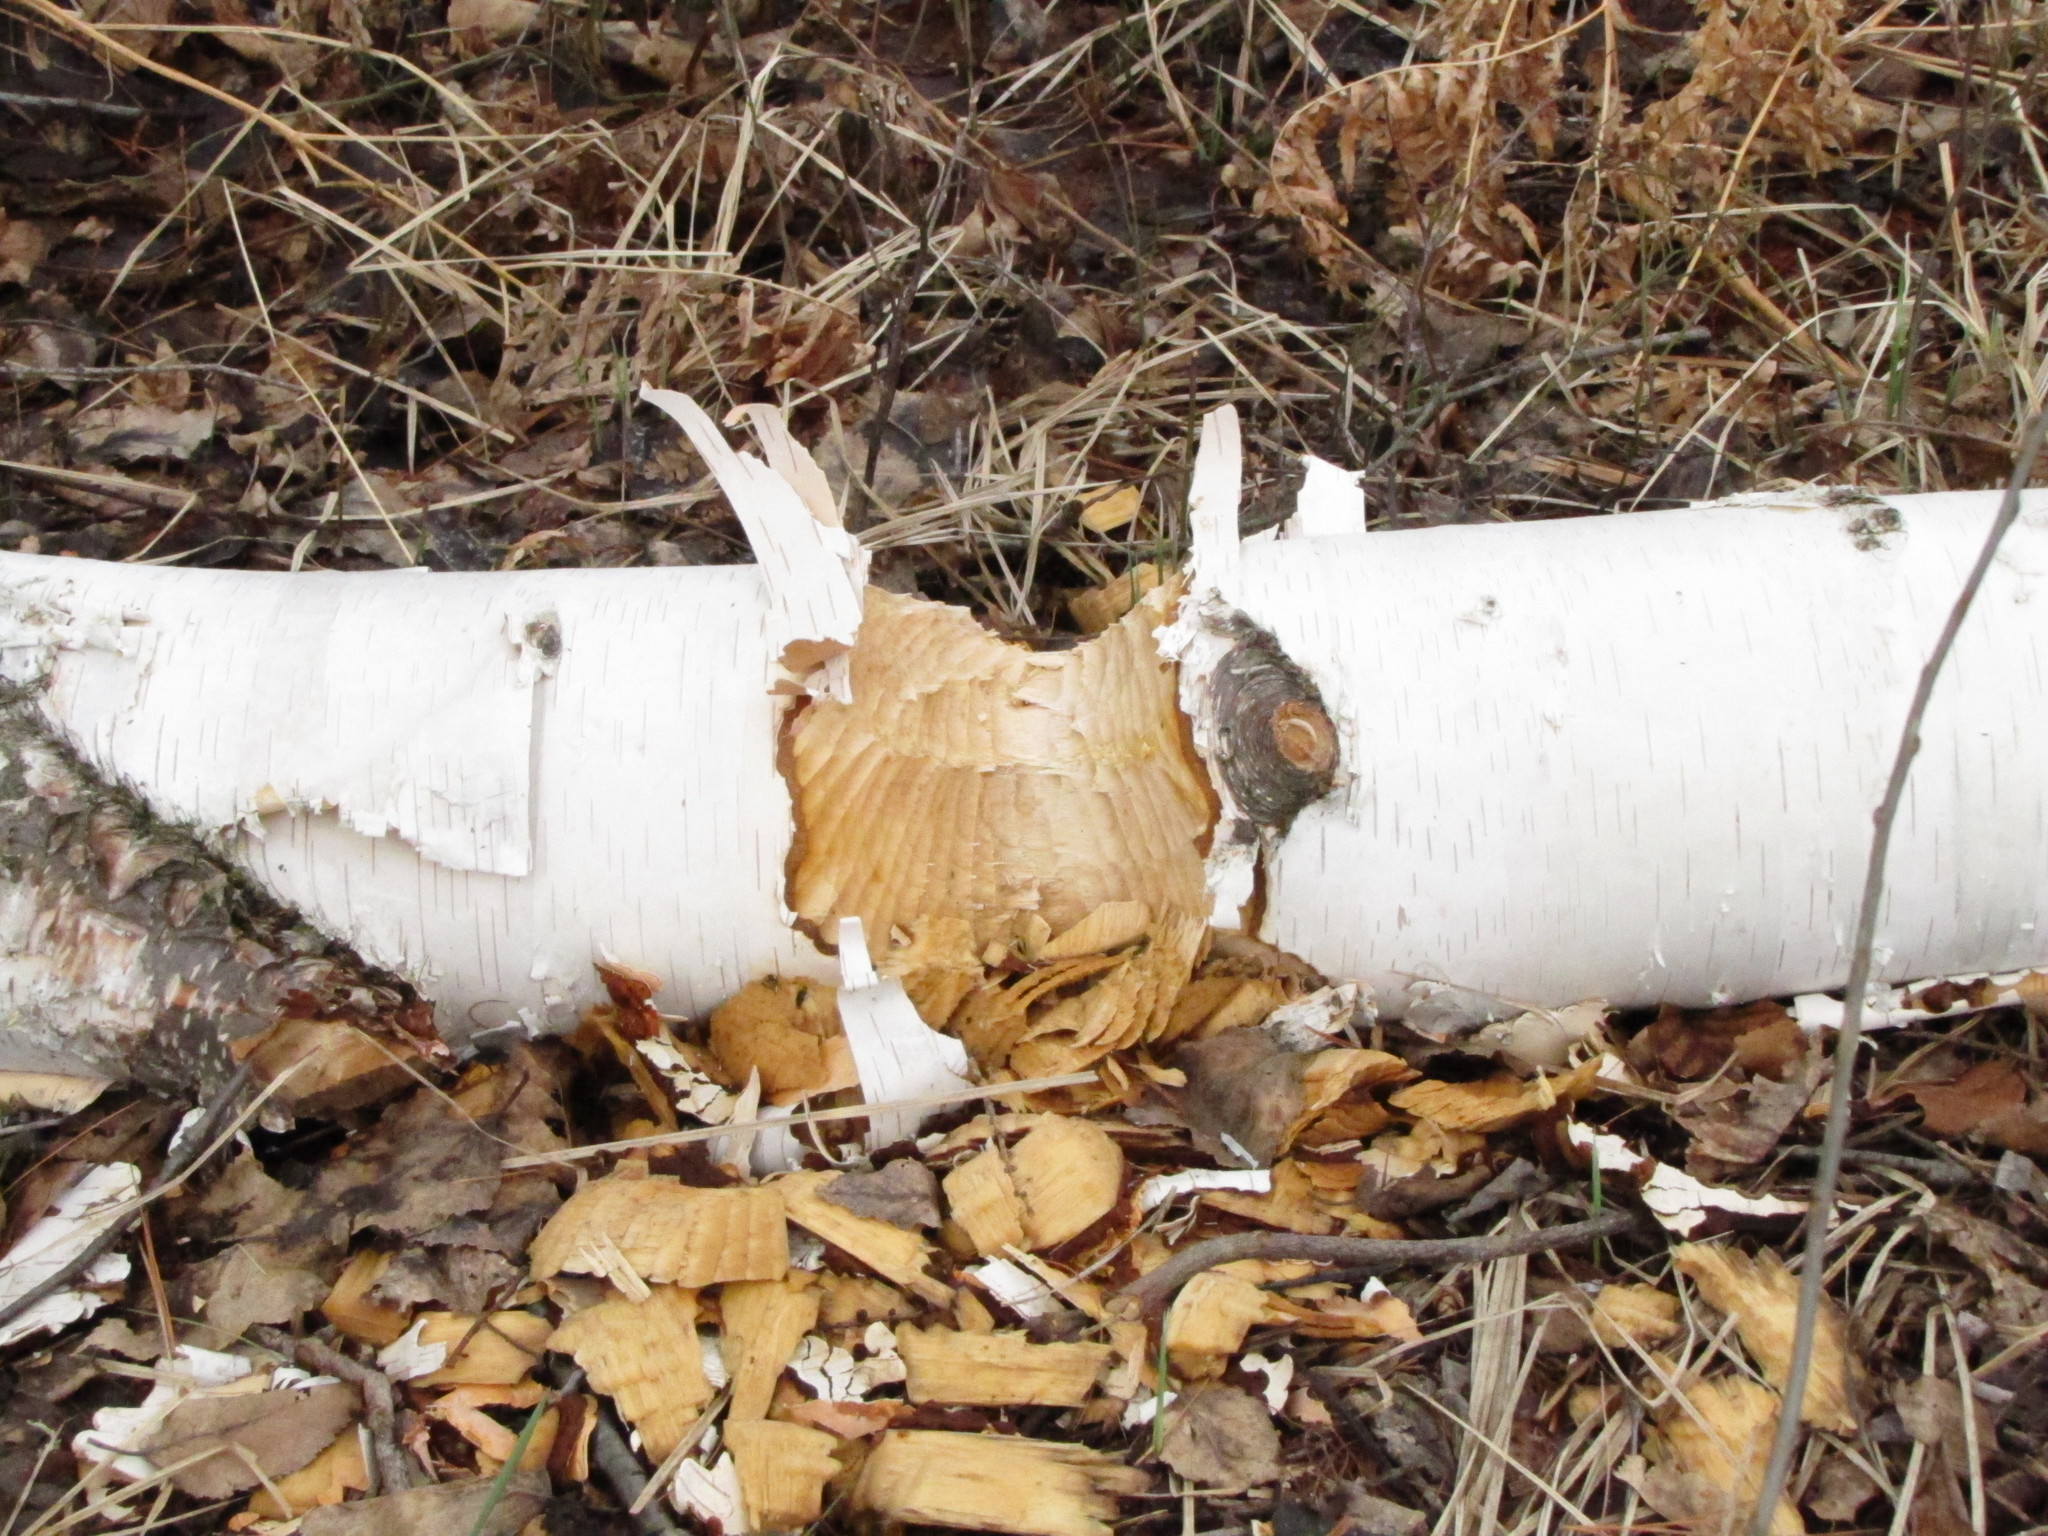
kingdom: Animalia
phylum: Chordata
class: Mammalia
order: Rodentia
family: Castoridae
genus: Castor
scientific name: Castor canadensis
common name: American beaver
